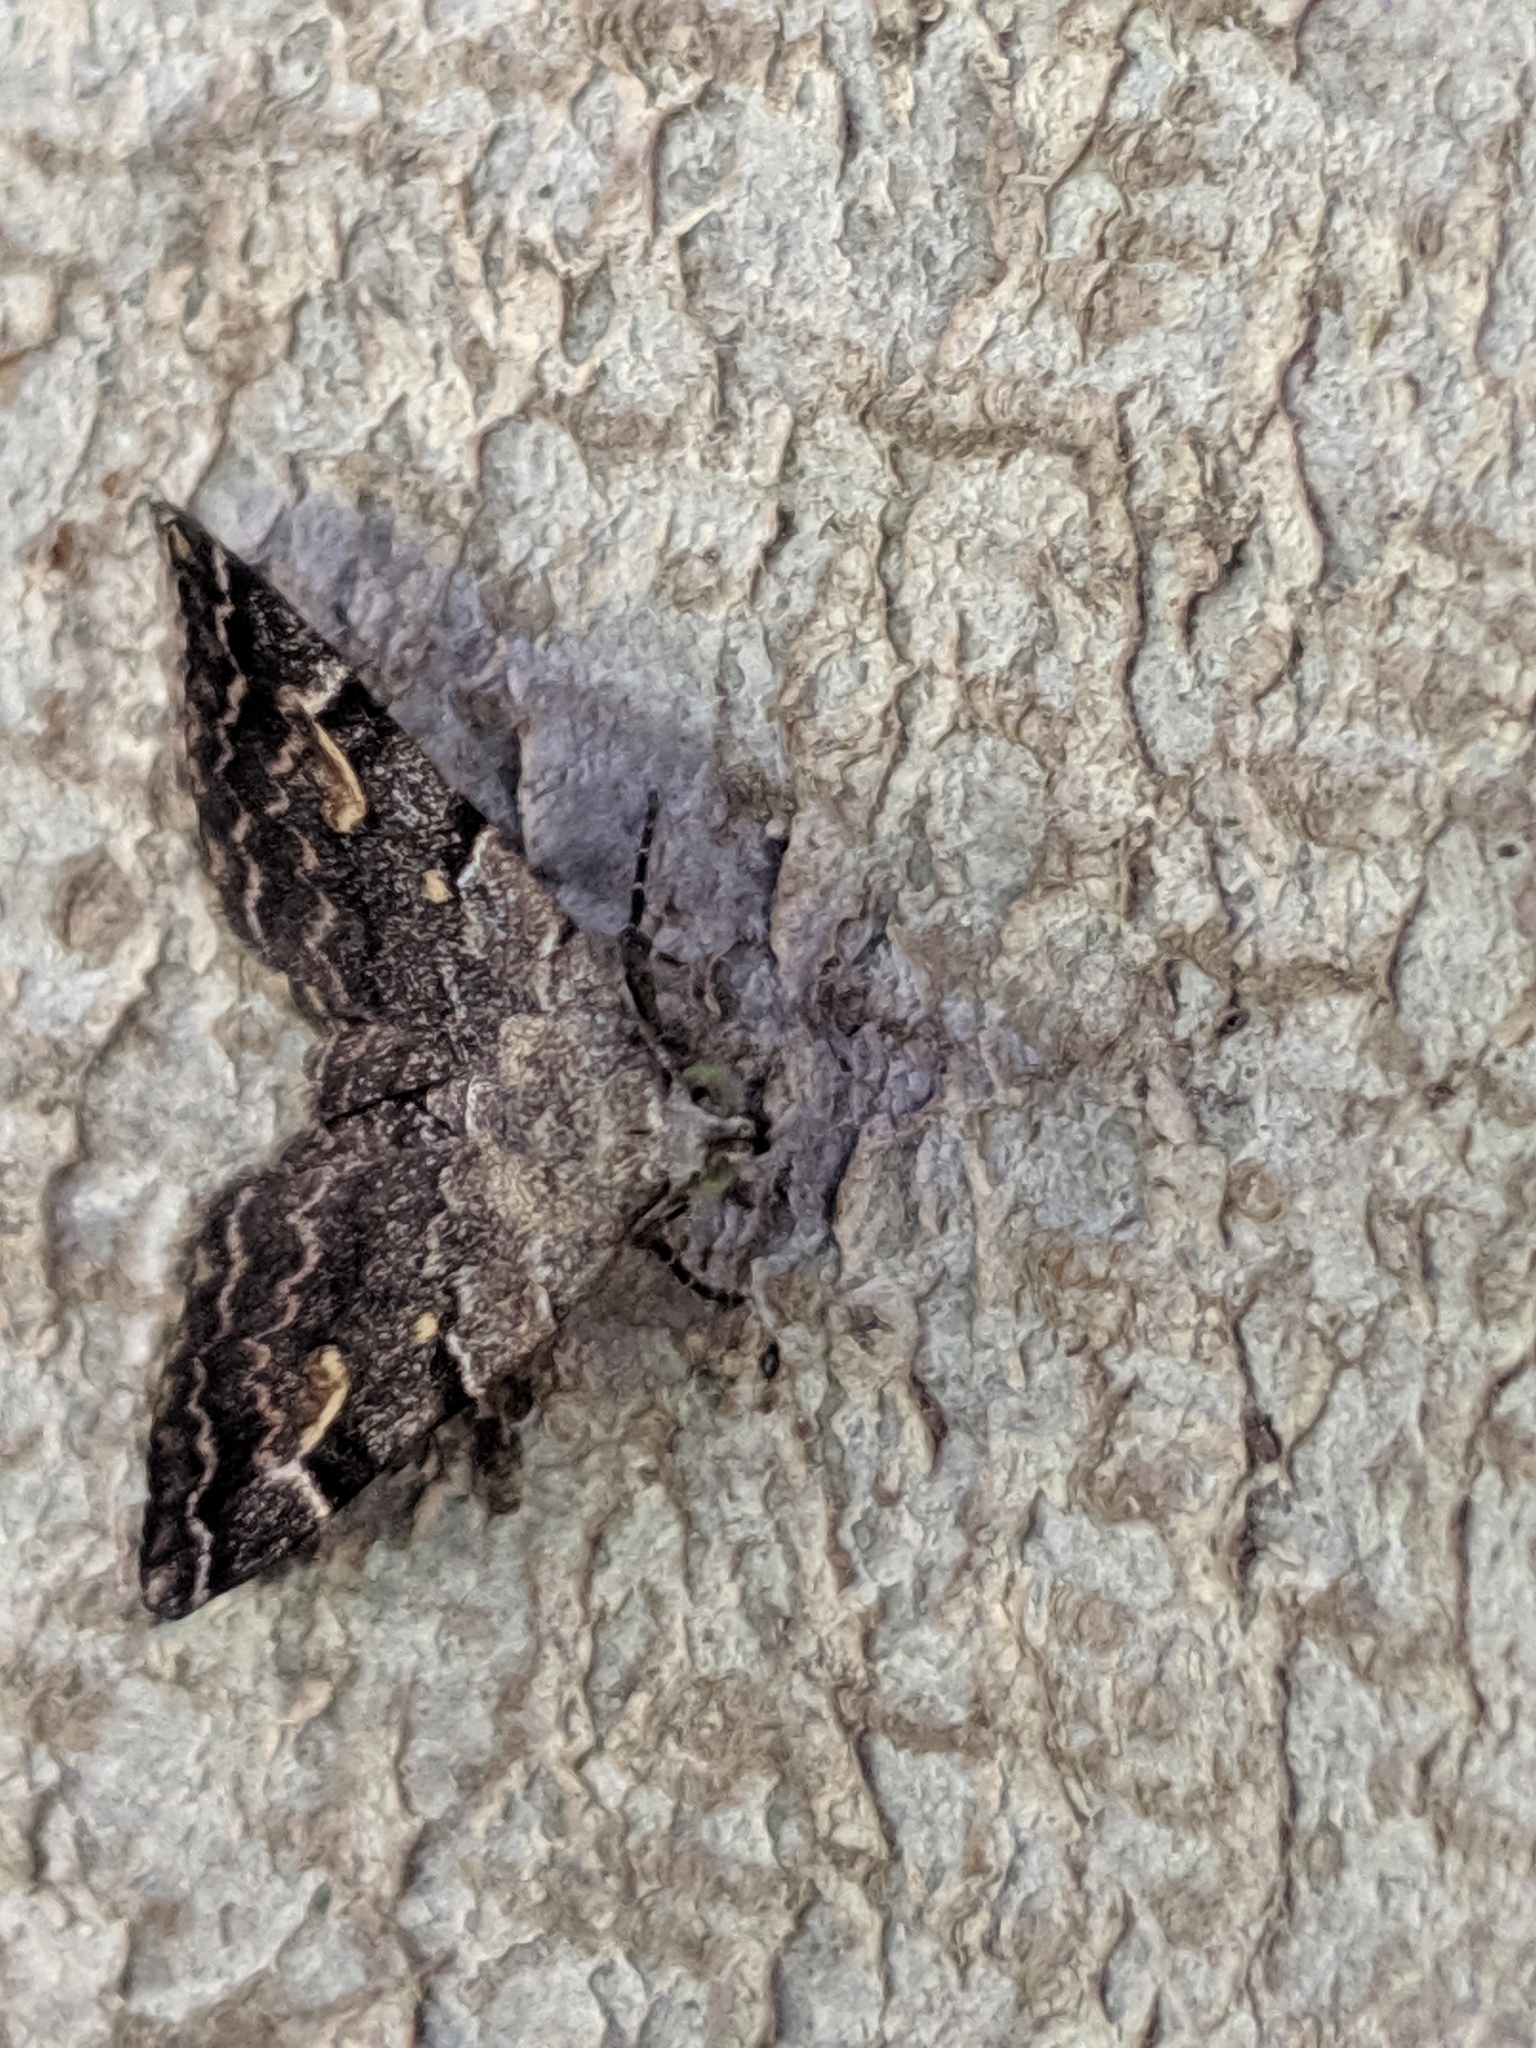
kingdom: Animalia
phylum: Arthropoda
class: Insecta
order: Lepidoptera
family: Erebidae
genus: Idia
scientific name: Idia americalis
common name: American idia moth
